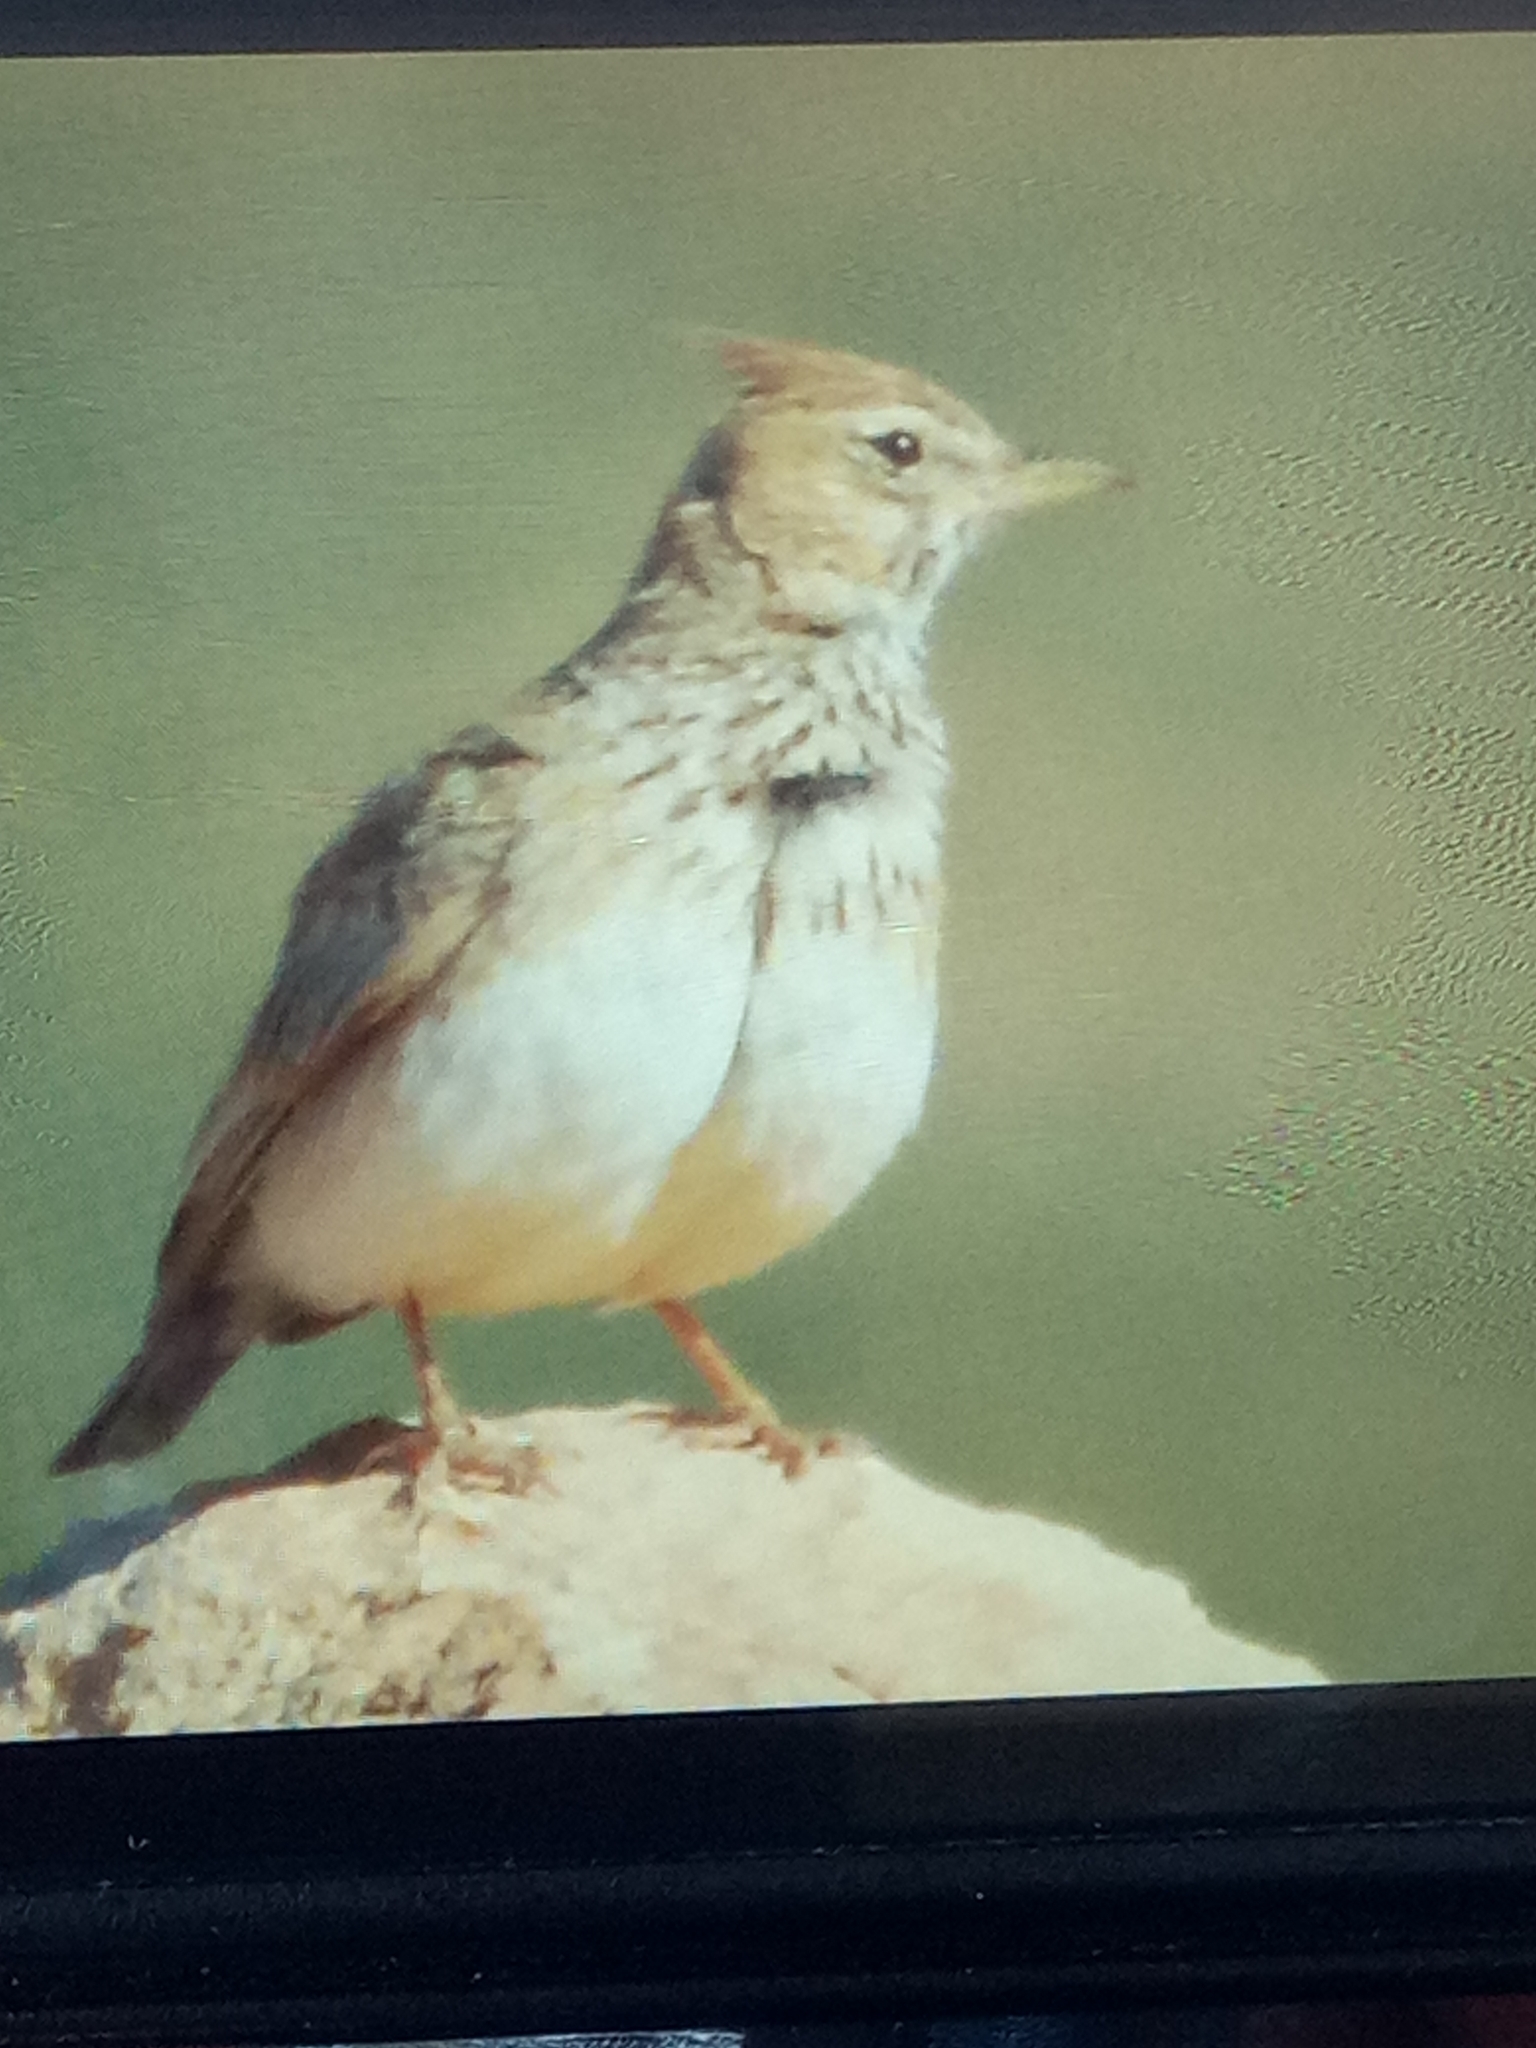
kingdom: Animalia
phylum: Chordata
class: Aves
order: Passeriformes
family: Alaudidae
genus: Galerida
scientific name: Galerida cristata
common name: Crested lark
